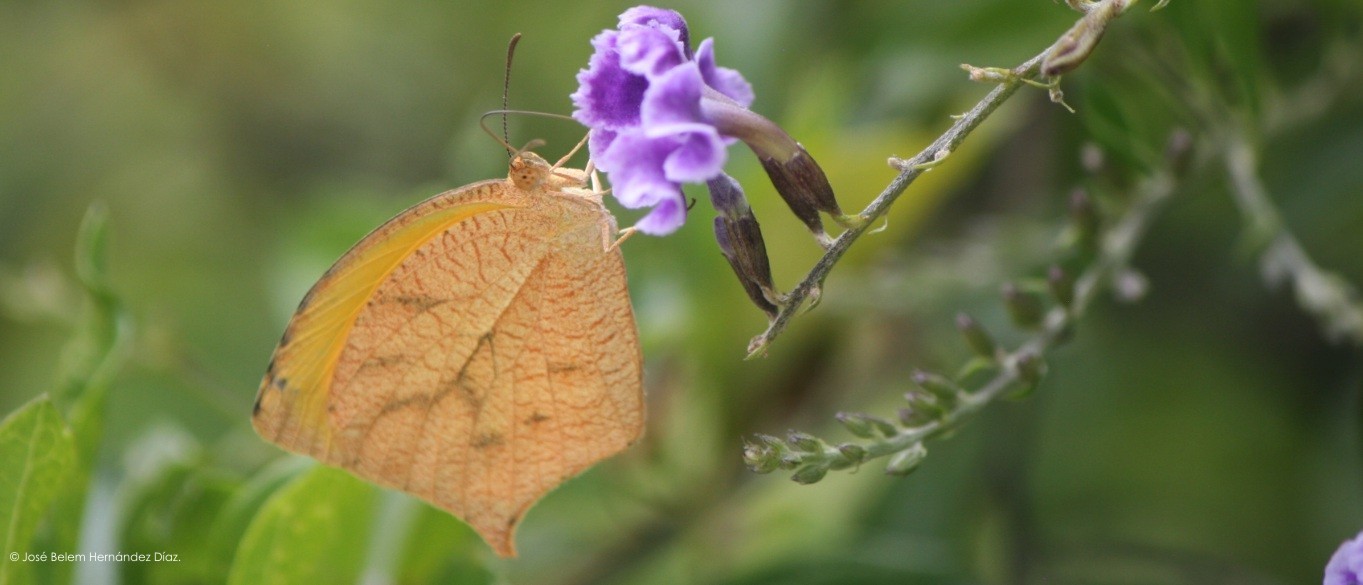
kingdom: Animalia
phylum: Arthropoda
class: Insecta
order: Lepidoptera
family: Pieridae
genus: Pyrisitia
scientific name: Pyrisitia proterpia
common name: Tailed orange
